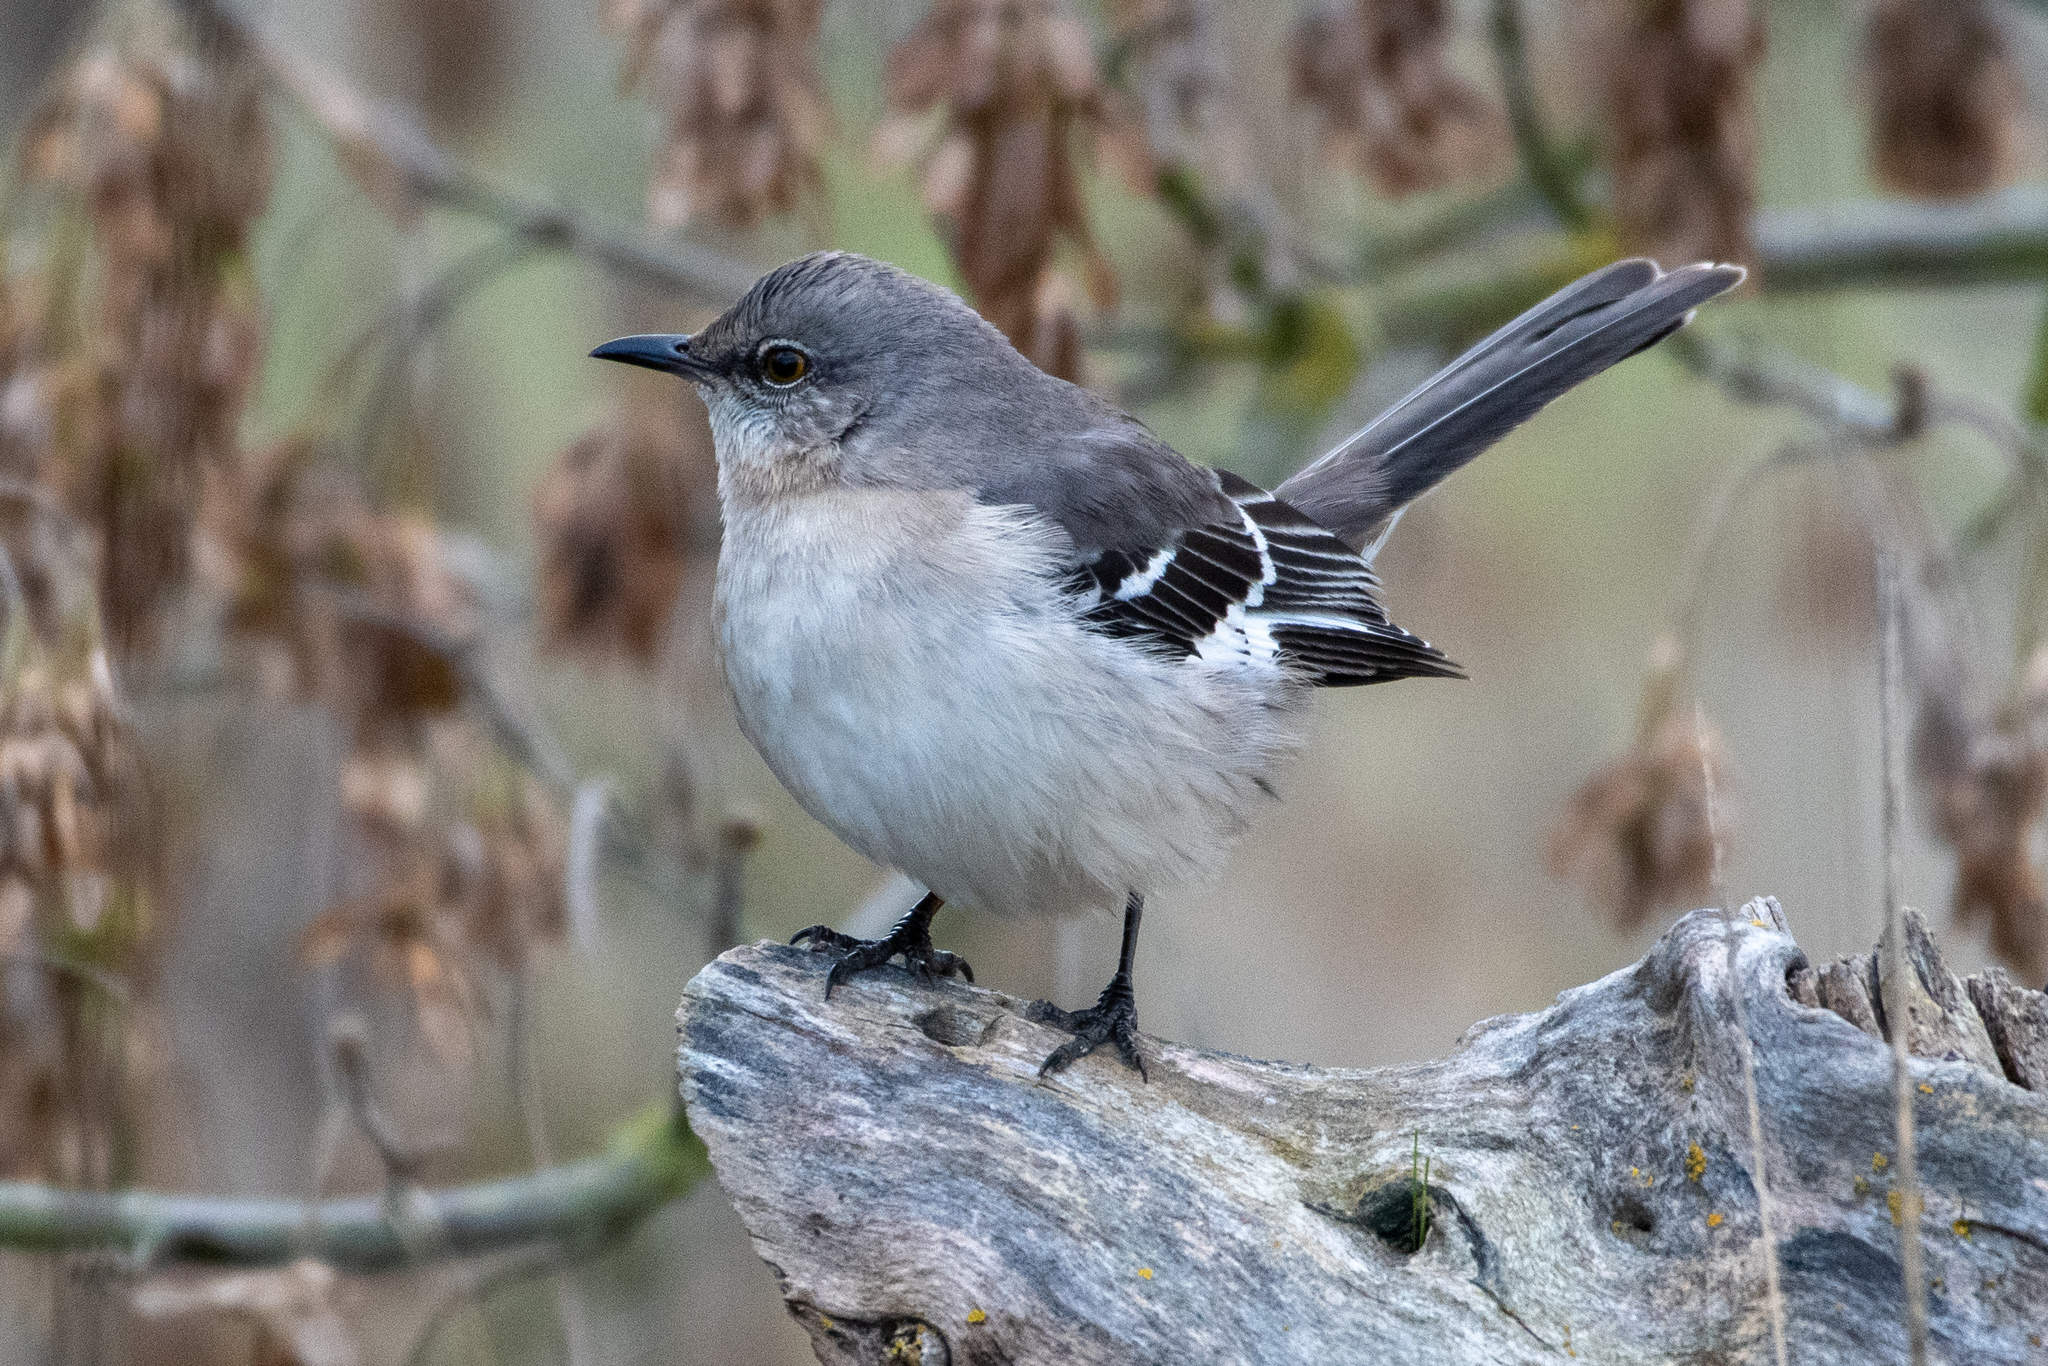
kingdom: Animalia
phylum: Chordata
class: Aves
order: Passeriformes
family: Mimidae
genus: Mimus
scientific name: Mimus polyglottos
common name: Northern mockingbird
